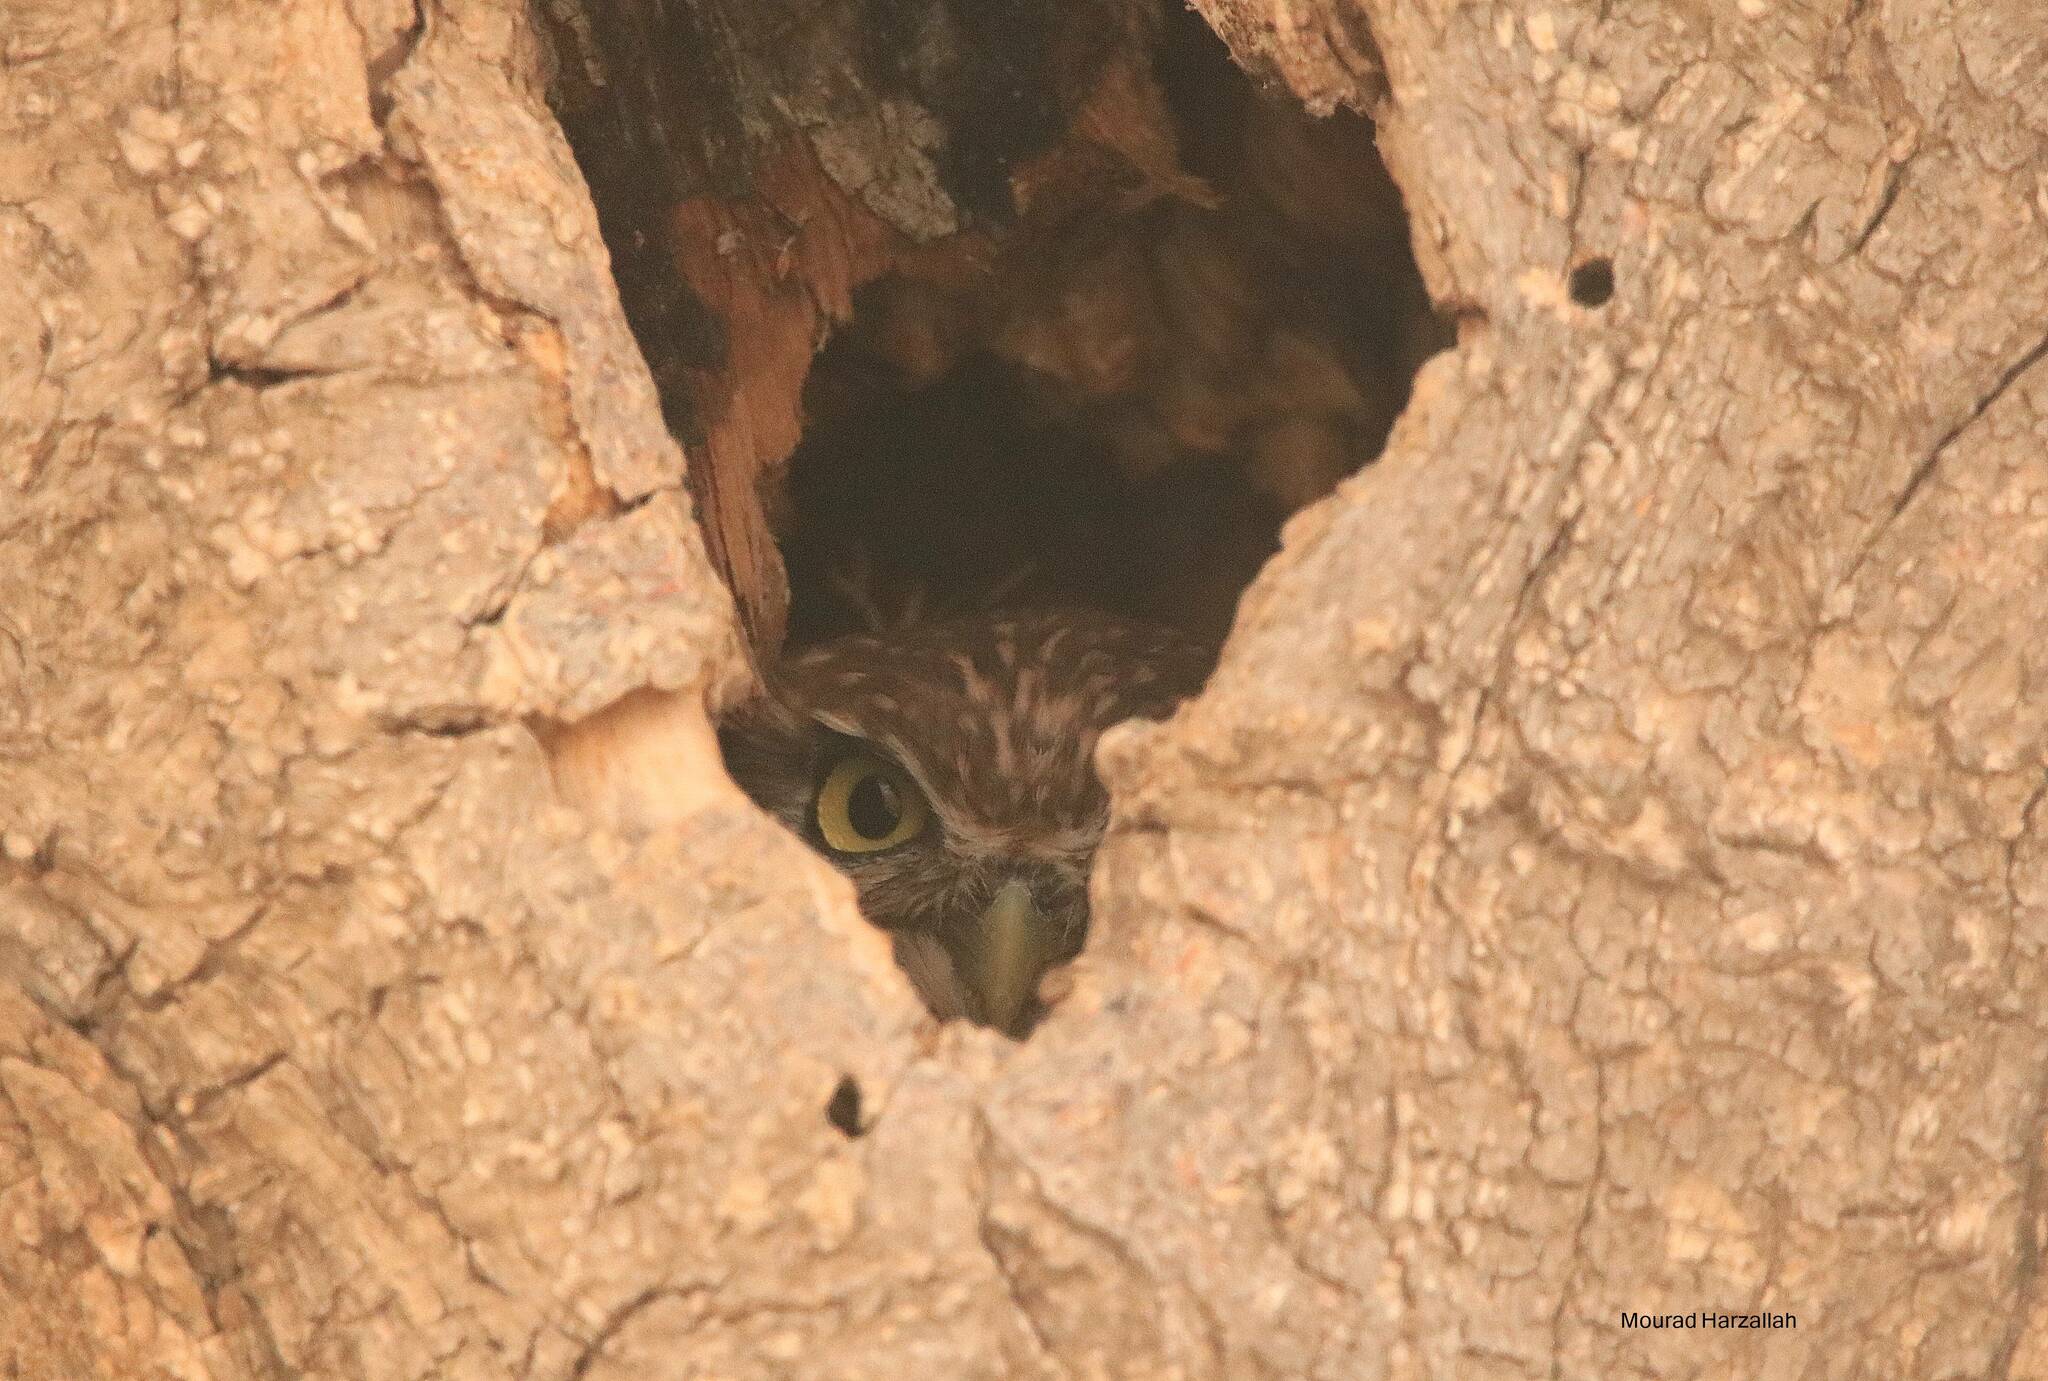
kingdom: Animalia
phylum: Chordata
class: Aves
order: Strigiformes
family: Strigidae
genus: Athene
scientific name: Athene noctua
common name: Little owl
